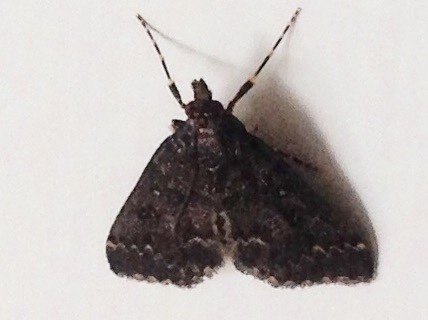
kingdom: Animalia
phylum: Arthropoda
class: Insecta
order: Lepidoptera
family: Crambidae
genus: Loxostege
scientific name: Loxostege Proternia philocapna
